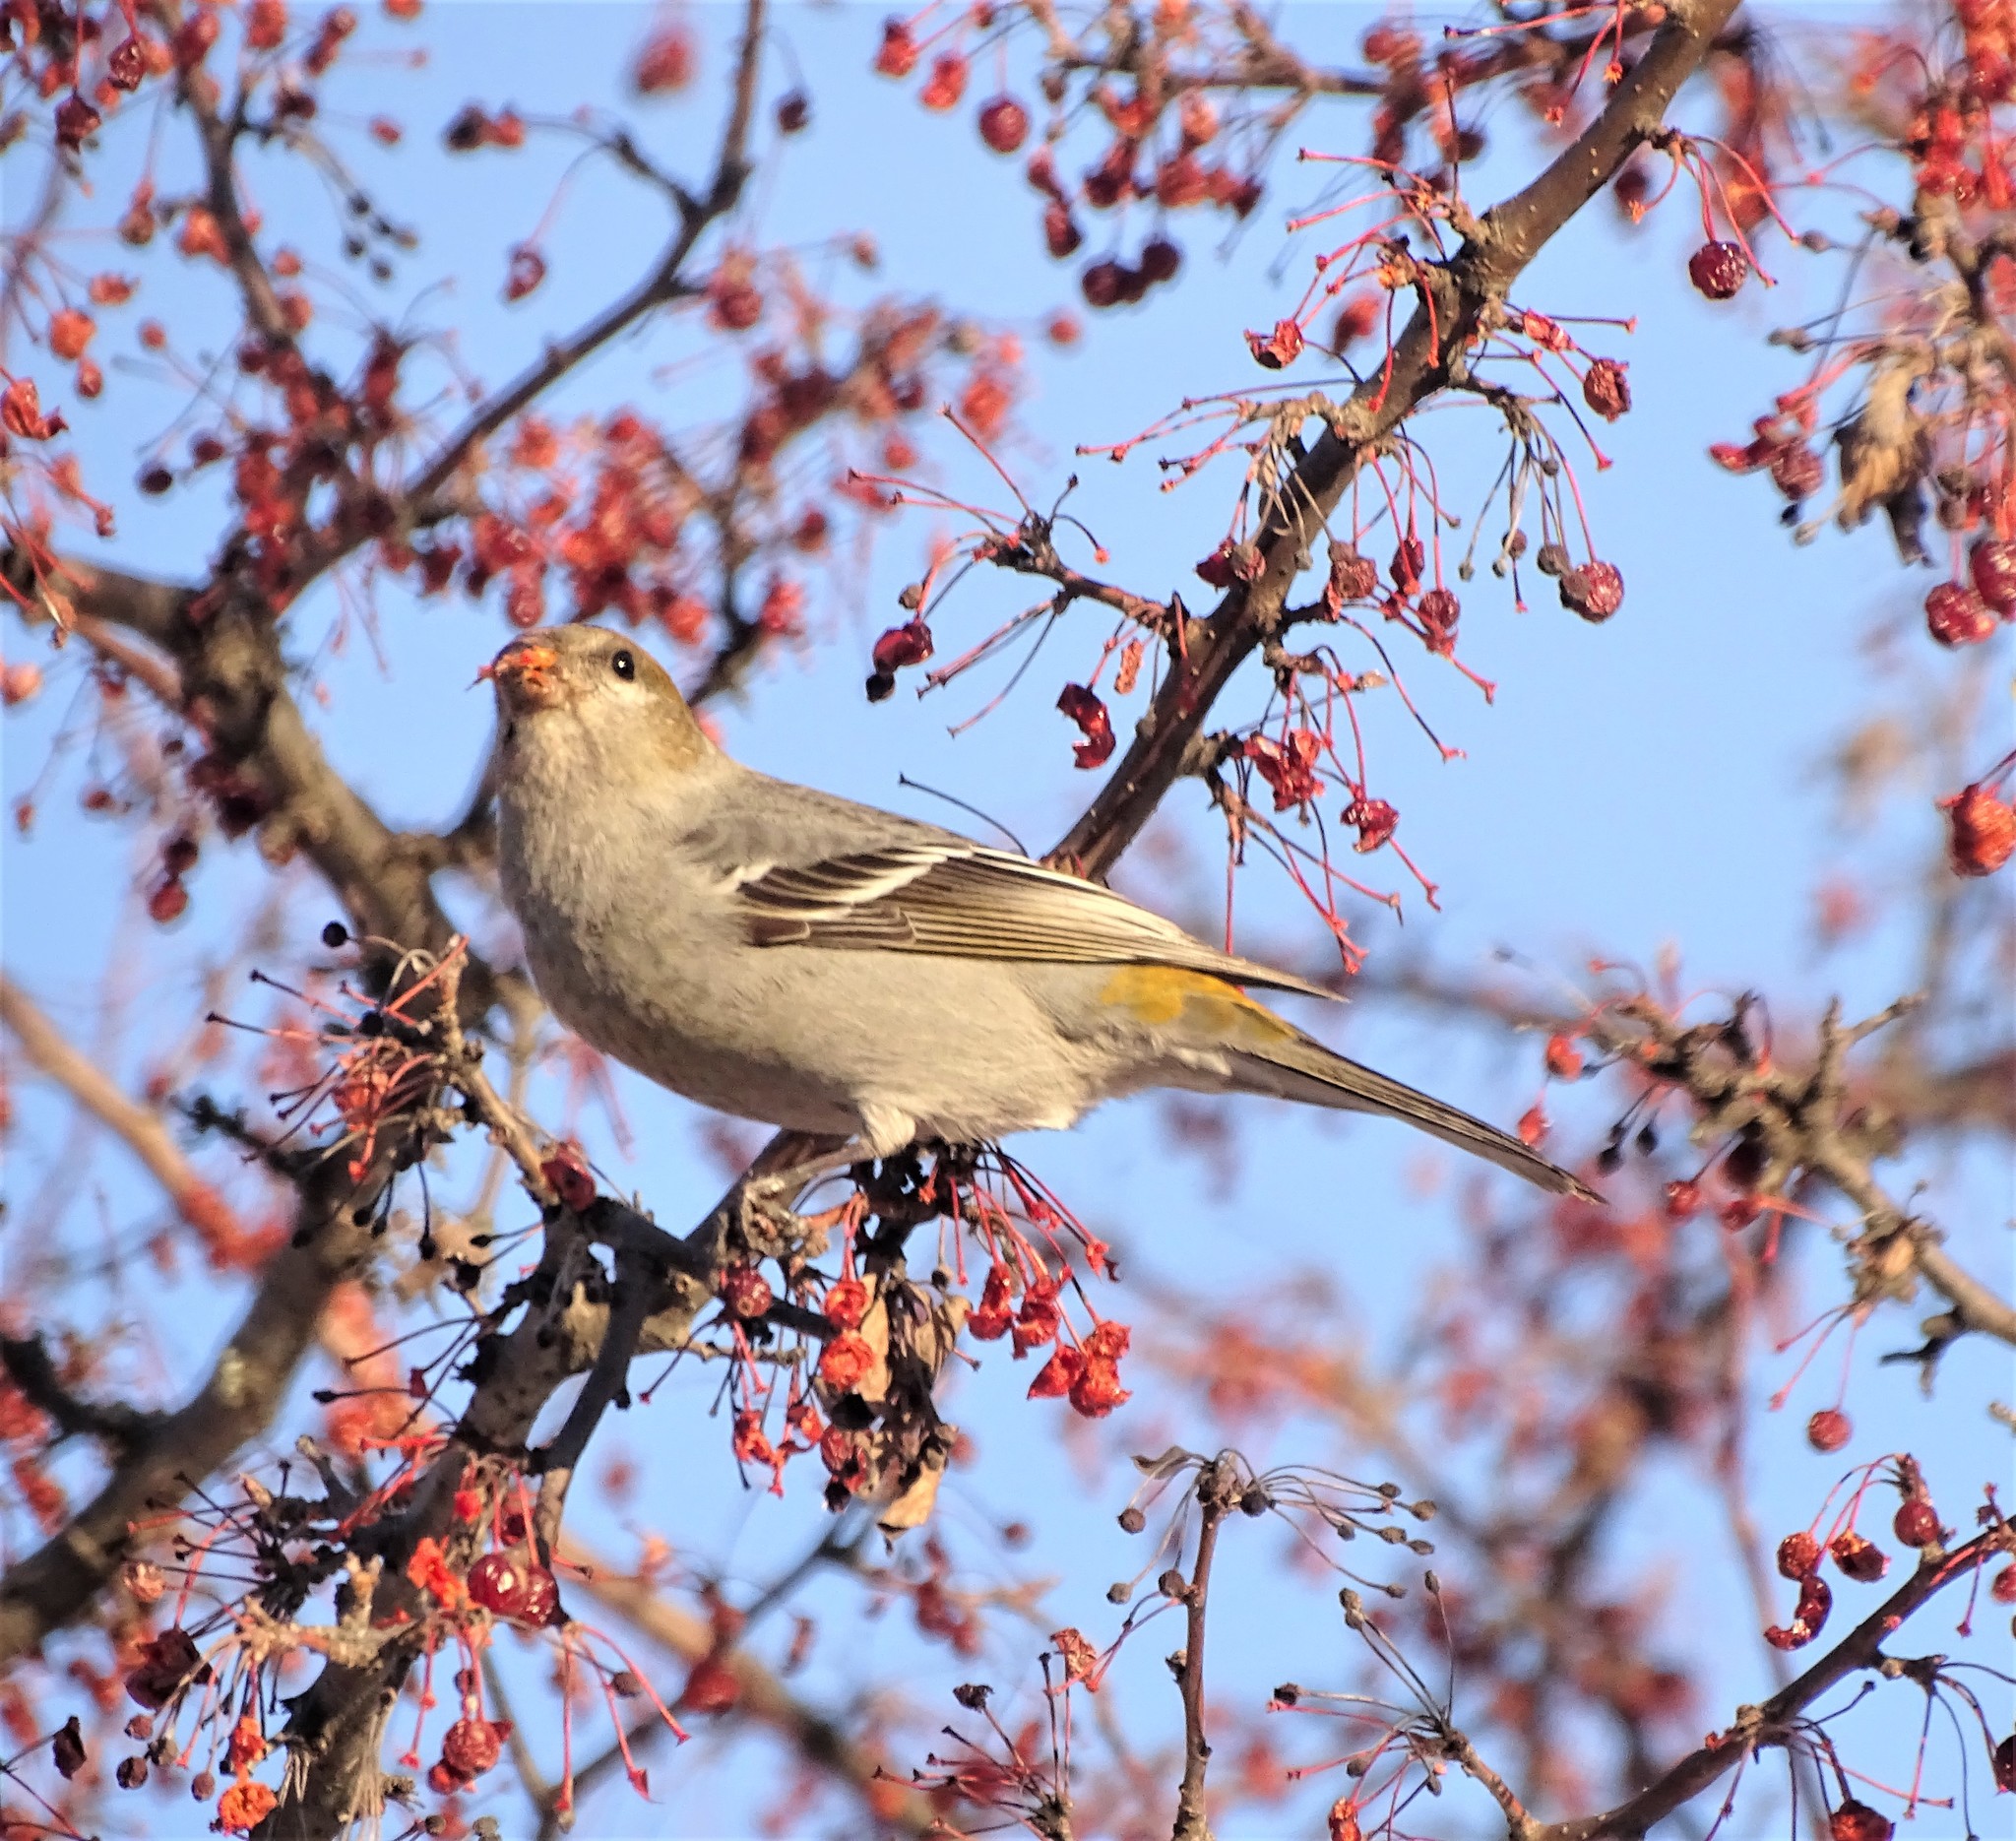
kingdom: Animalia
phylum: Chordata
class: Aves
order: Passeriformes
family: Fringillidae
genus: Pinicola
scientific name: Pinicola enucleator
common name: Pine grosbeak
